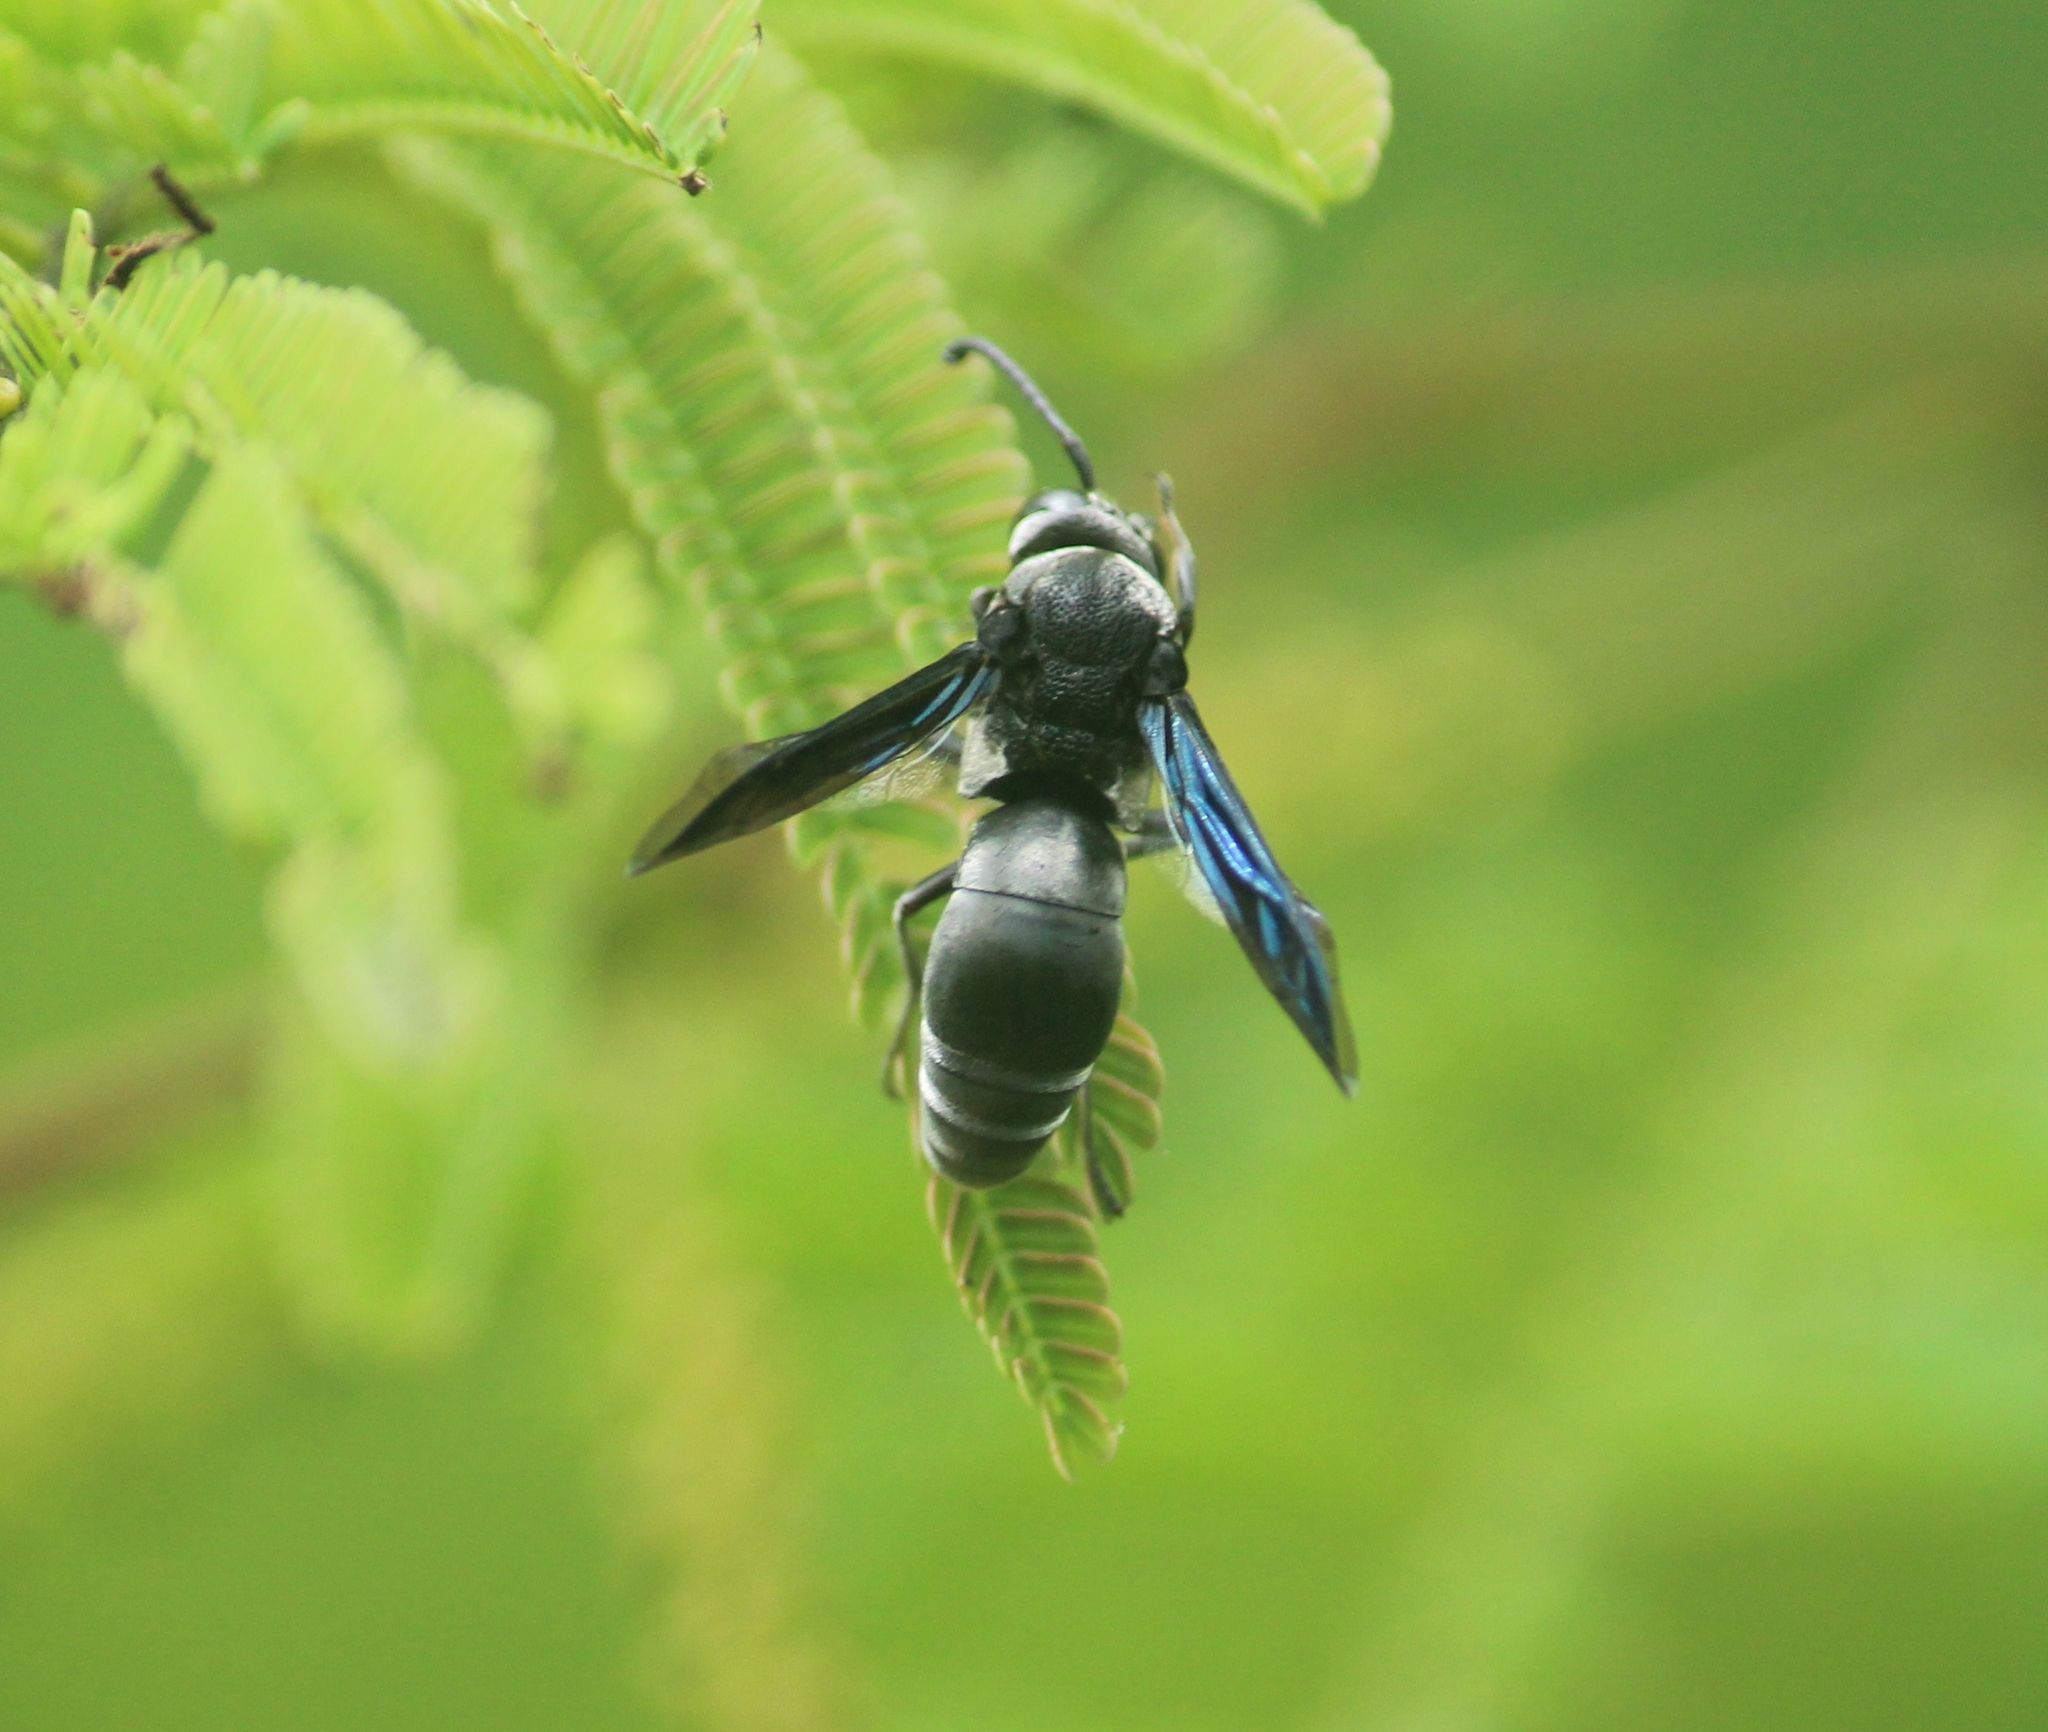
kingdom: Animalia
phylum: Arthropoda
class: Insecta
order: Hymenoptera
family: Eumenidae
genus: Xenorhynchium
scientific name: Xenorhynchium nitidulum
